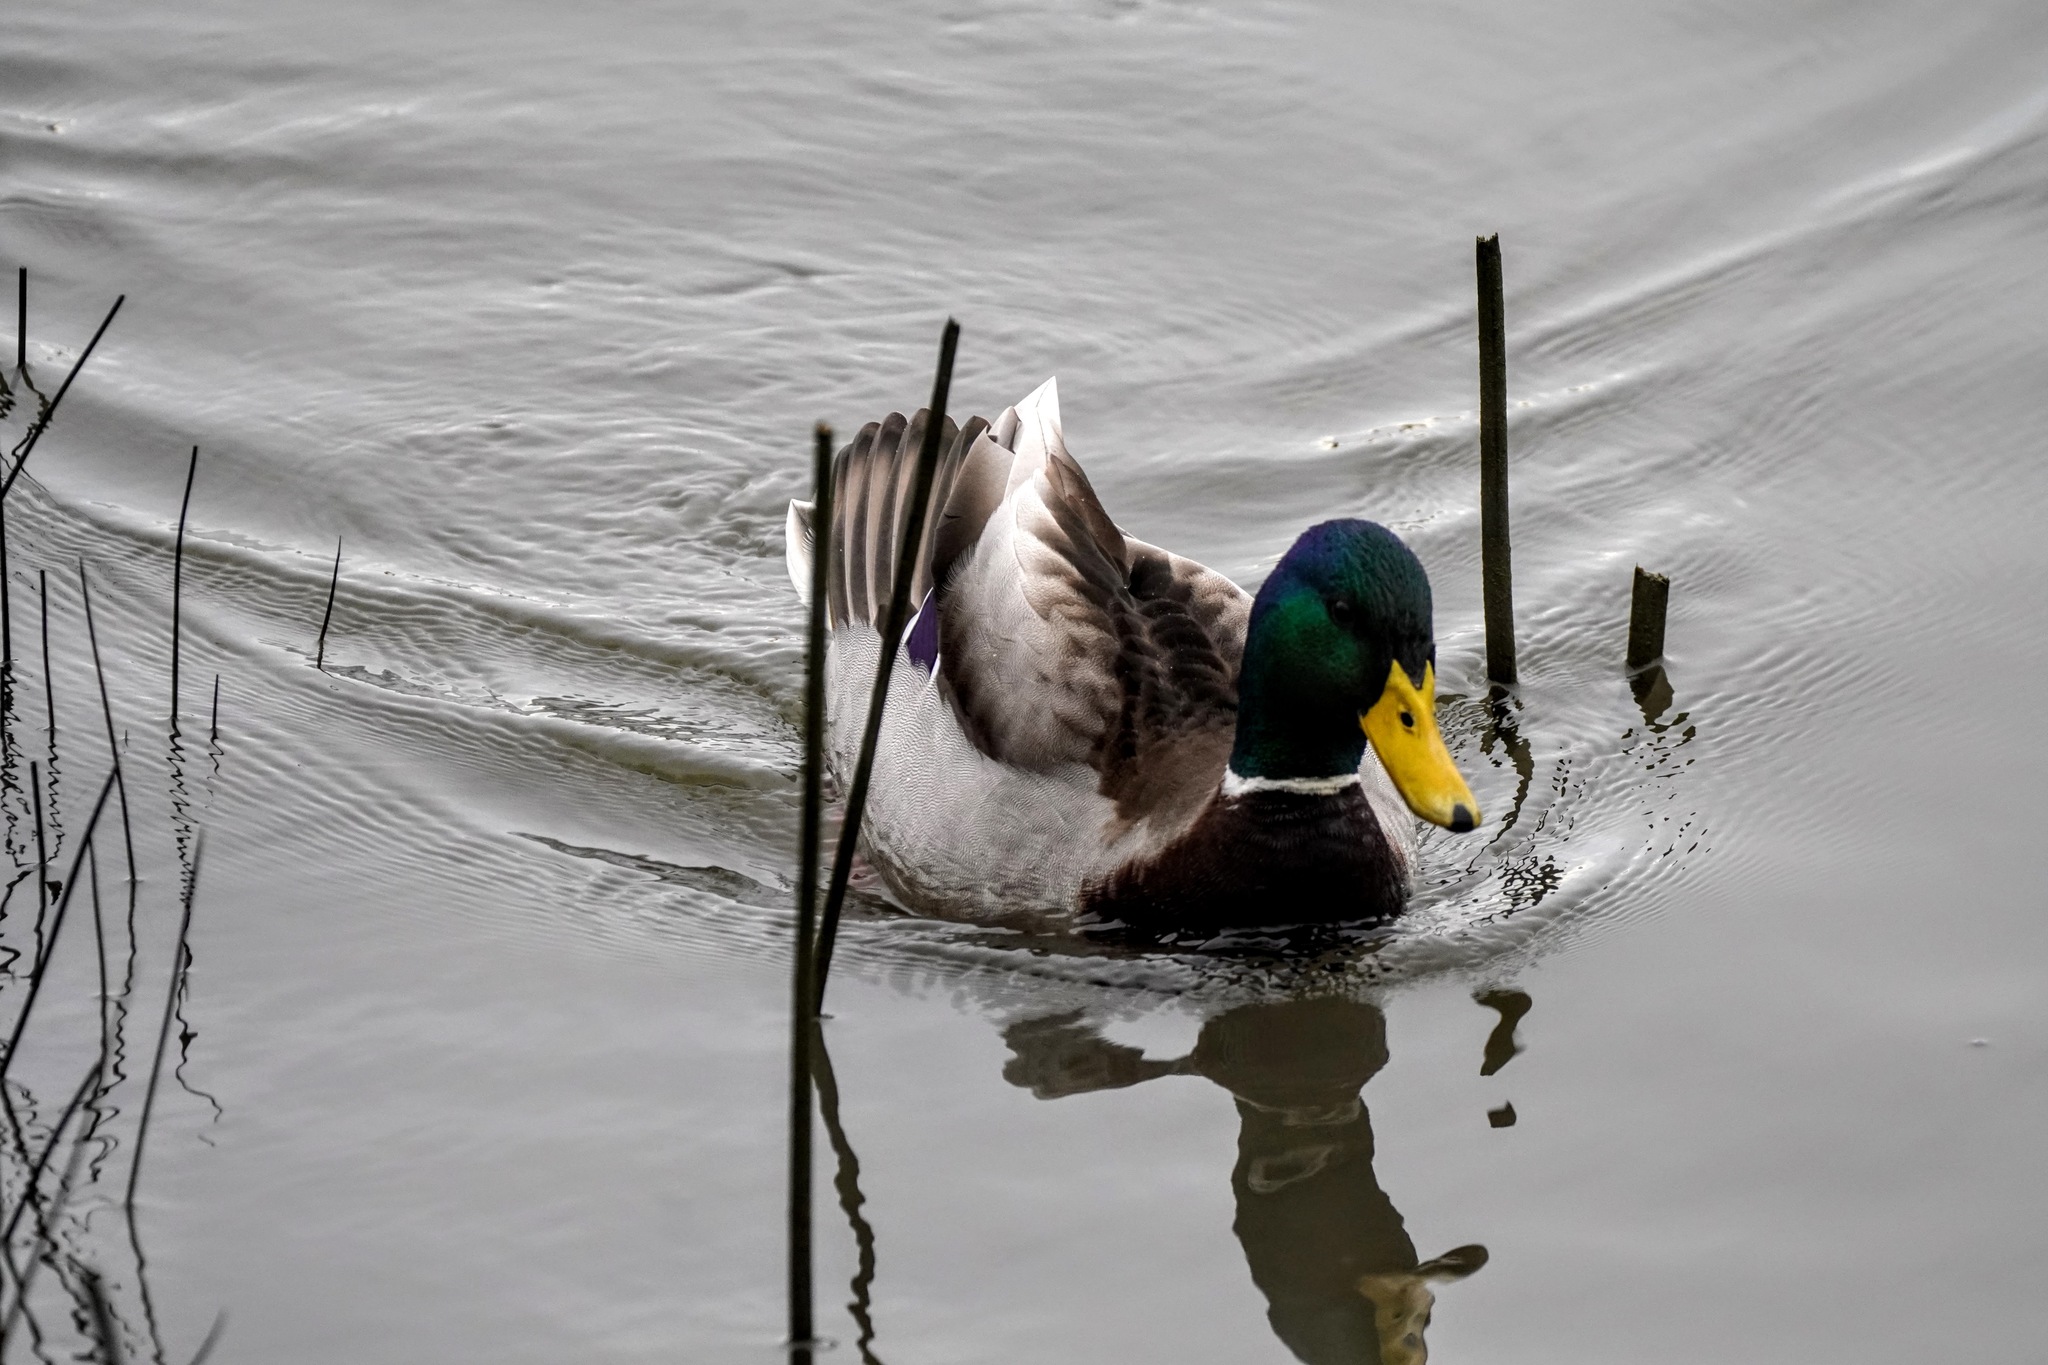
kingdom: Animalia
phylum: Chordata
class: Aves
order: Anseriformes
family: Anatidae
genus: Anas
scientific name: Anas platyrhynchos
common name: Mallard
